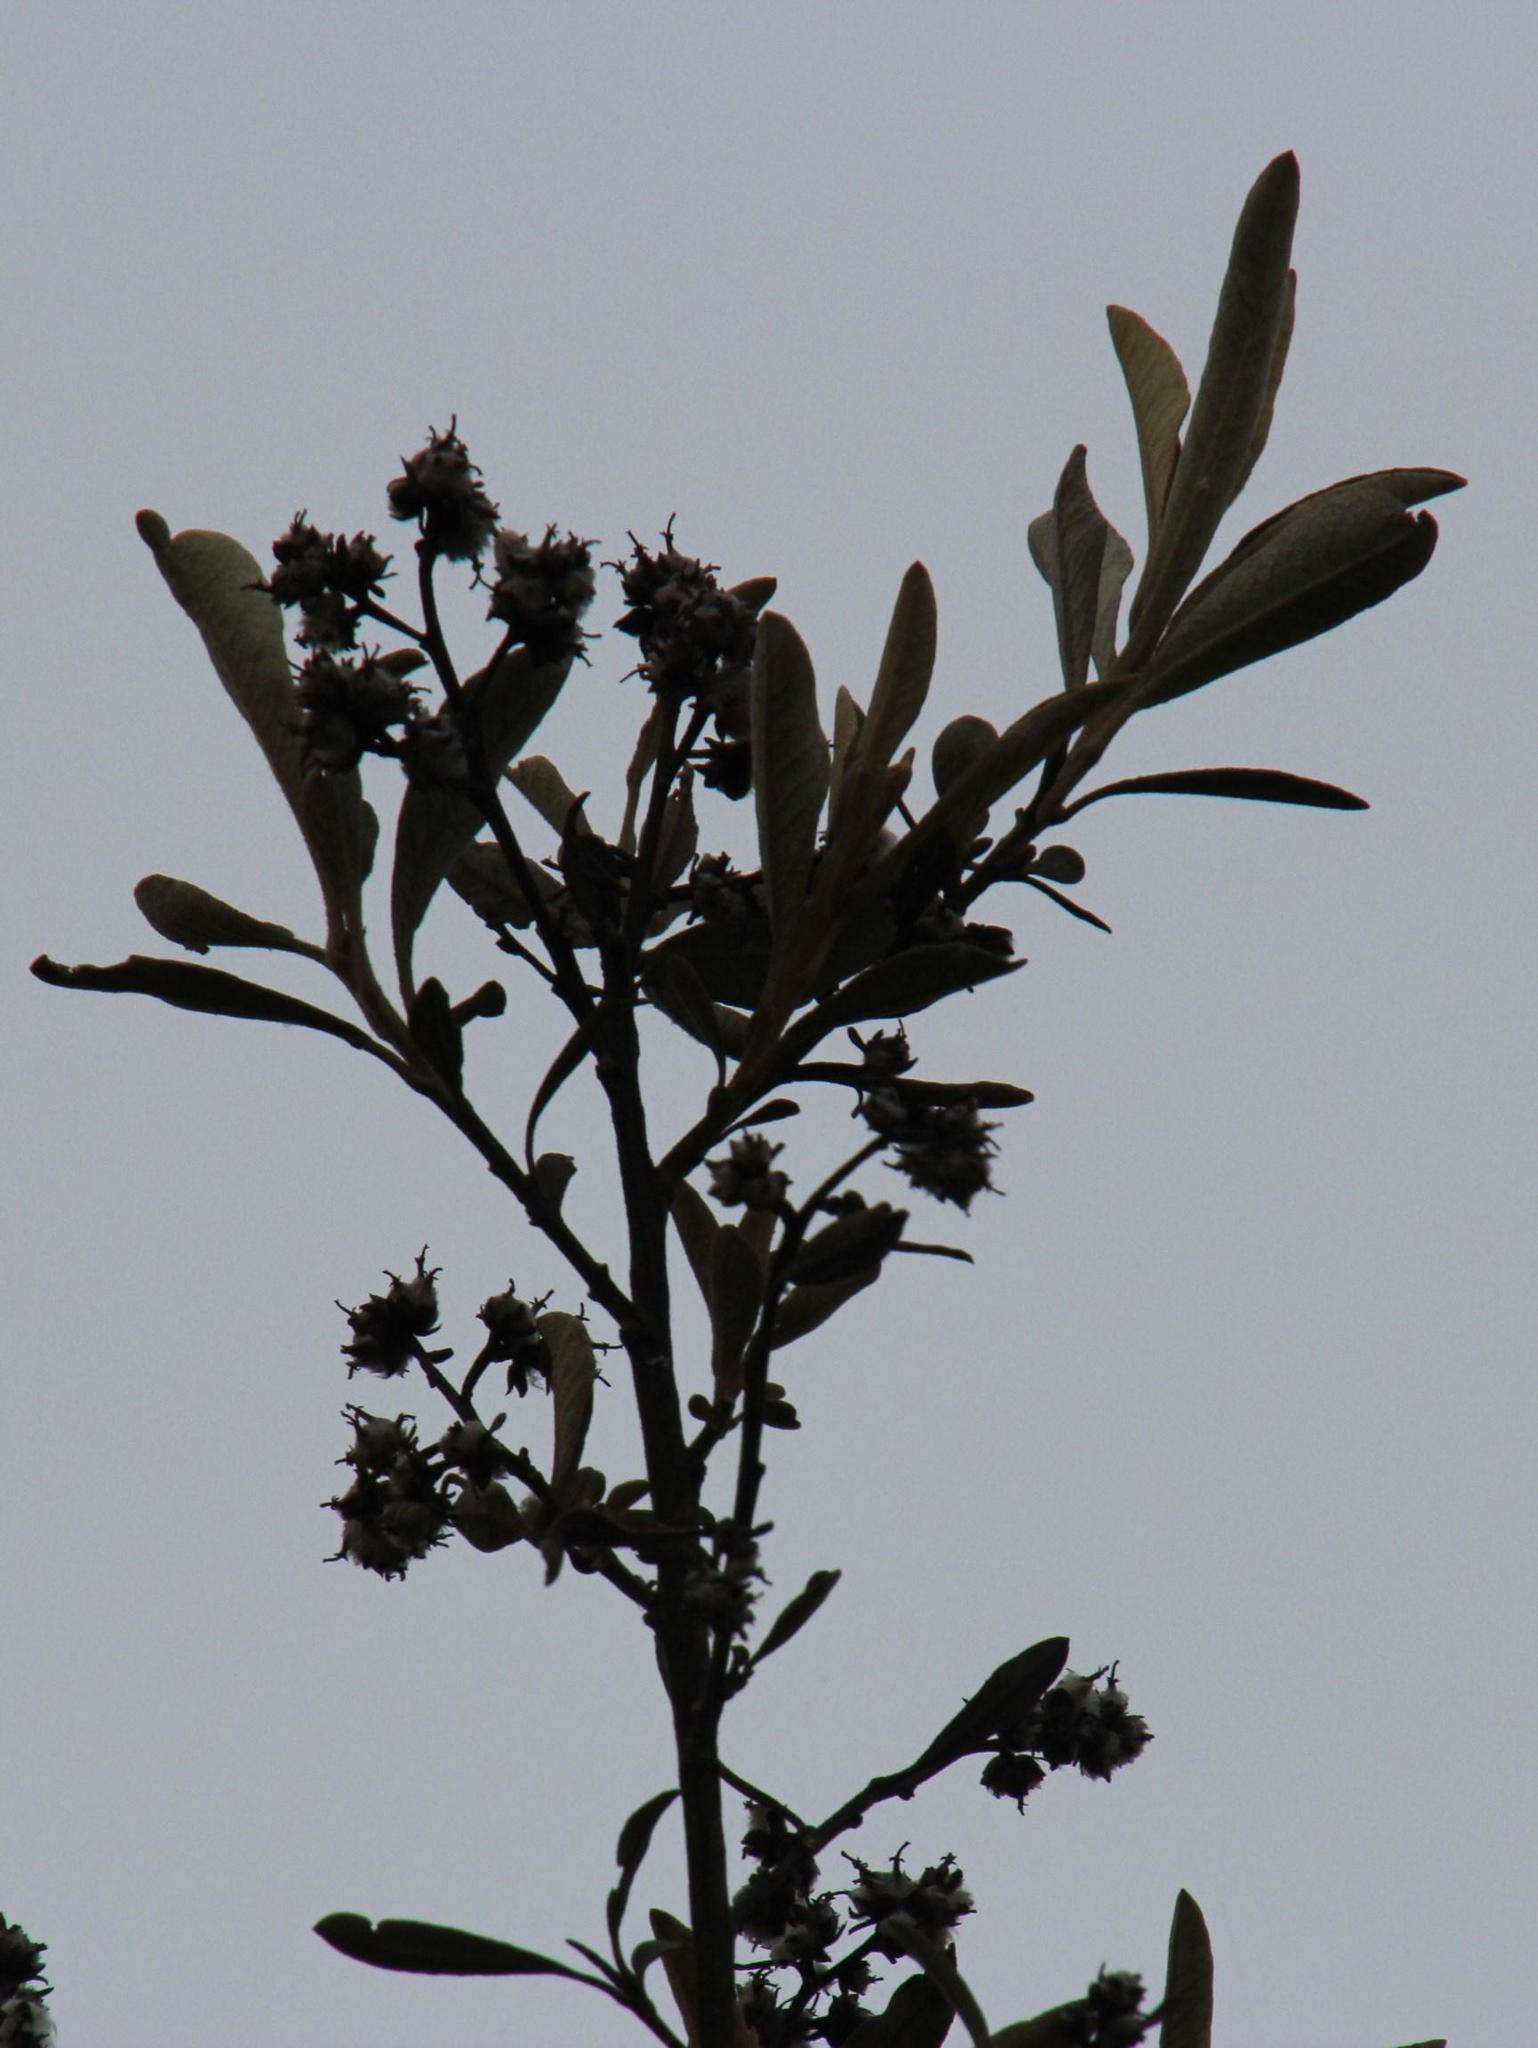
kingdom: Plantae
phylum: Tracheophyta
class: Magnoliopsida
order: Asterales
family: Asteraceae
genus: Tarchonanthus
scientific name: Tarchonanthus littoralis
